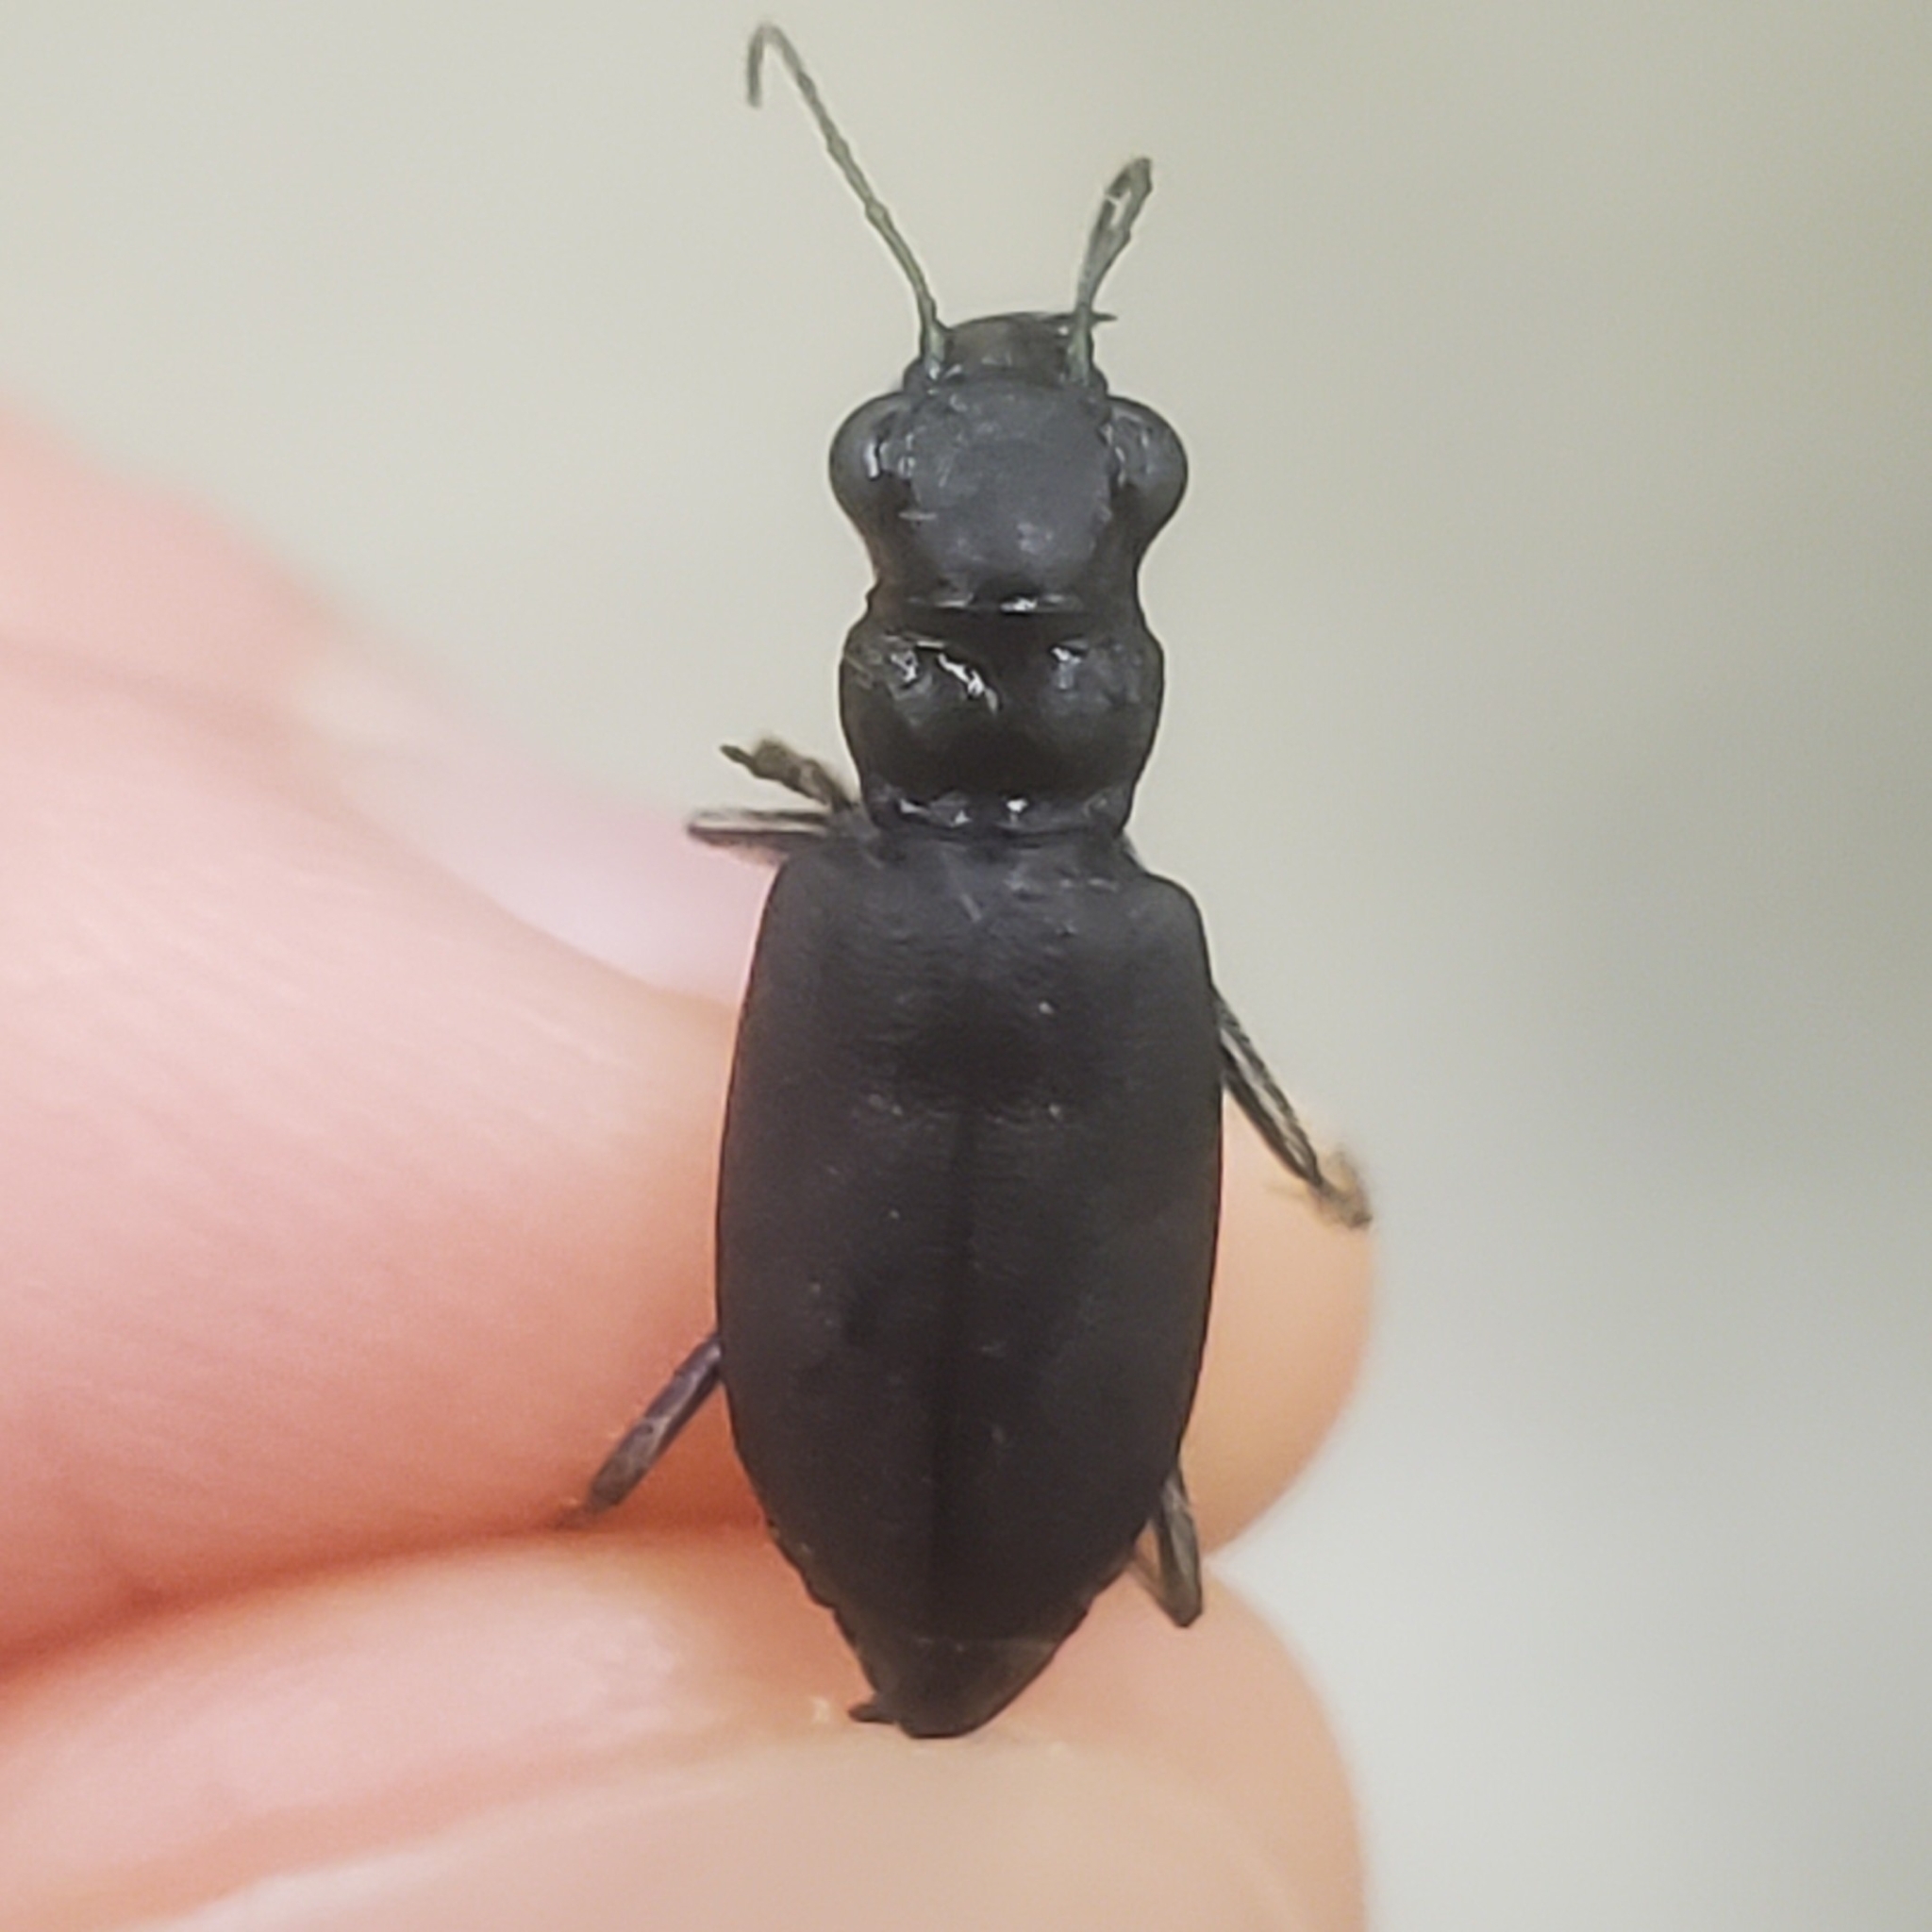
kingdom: Animalia
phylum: Arthropoda
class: Insecta
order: Coleoptera
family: Carabidae
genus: Cicindela
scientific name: Cicindela nebraskana
